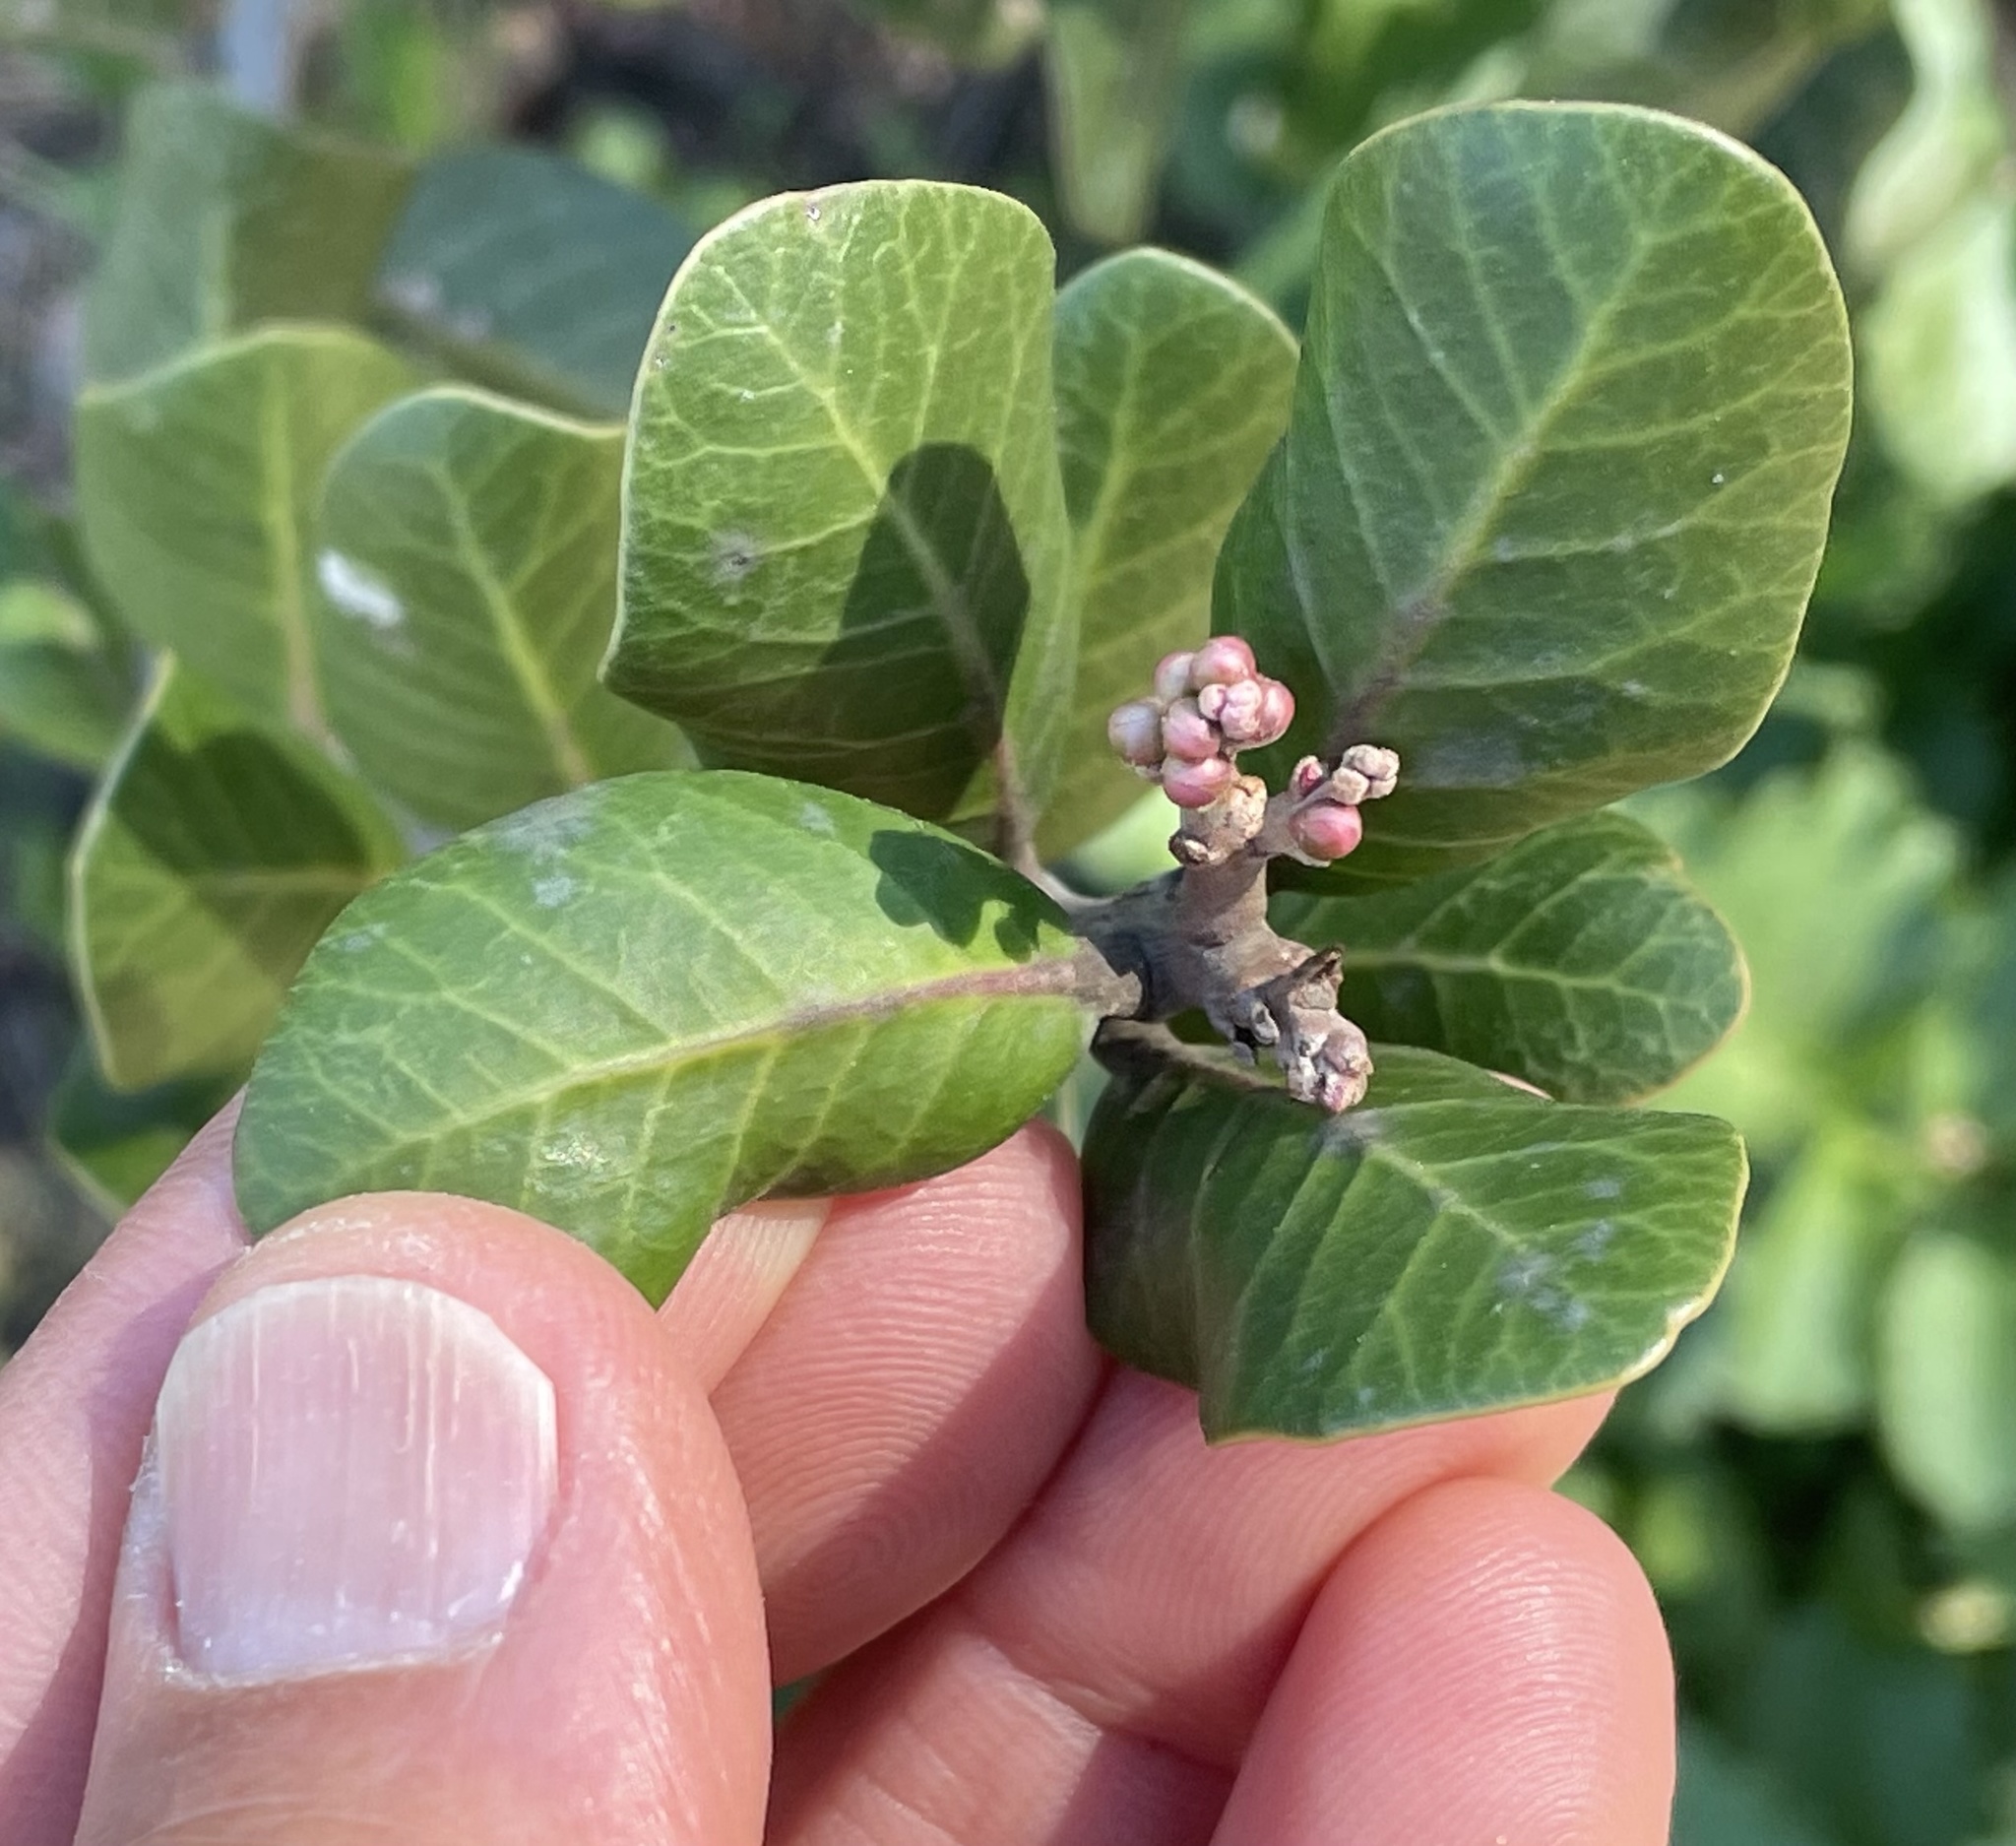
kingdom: Plantae
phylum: Tracheophyta
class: Magnoliopsida
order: Sapindales
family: Anacardiaceae
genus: Rhus
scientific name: Rhus integrifolia
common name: Lemonade sumac
